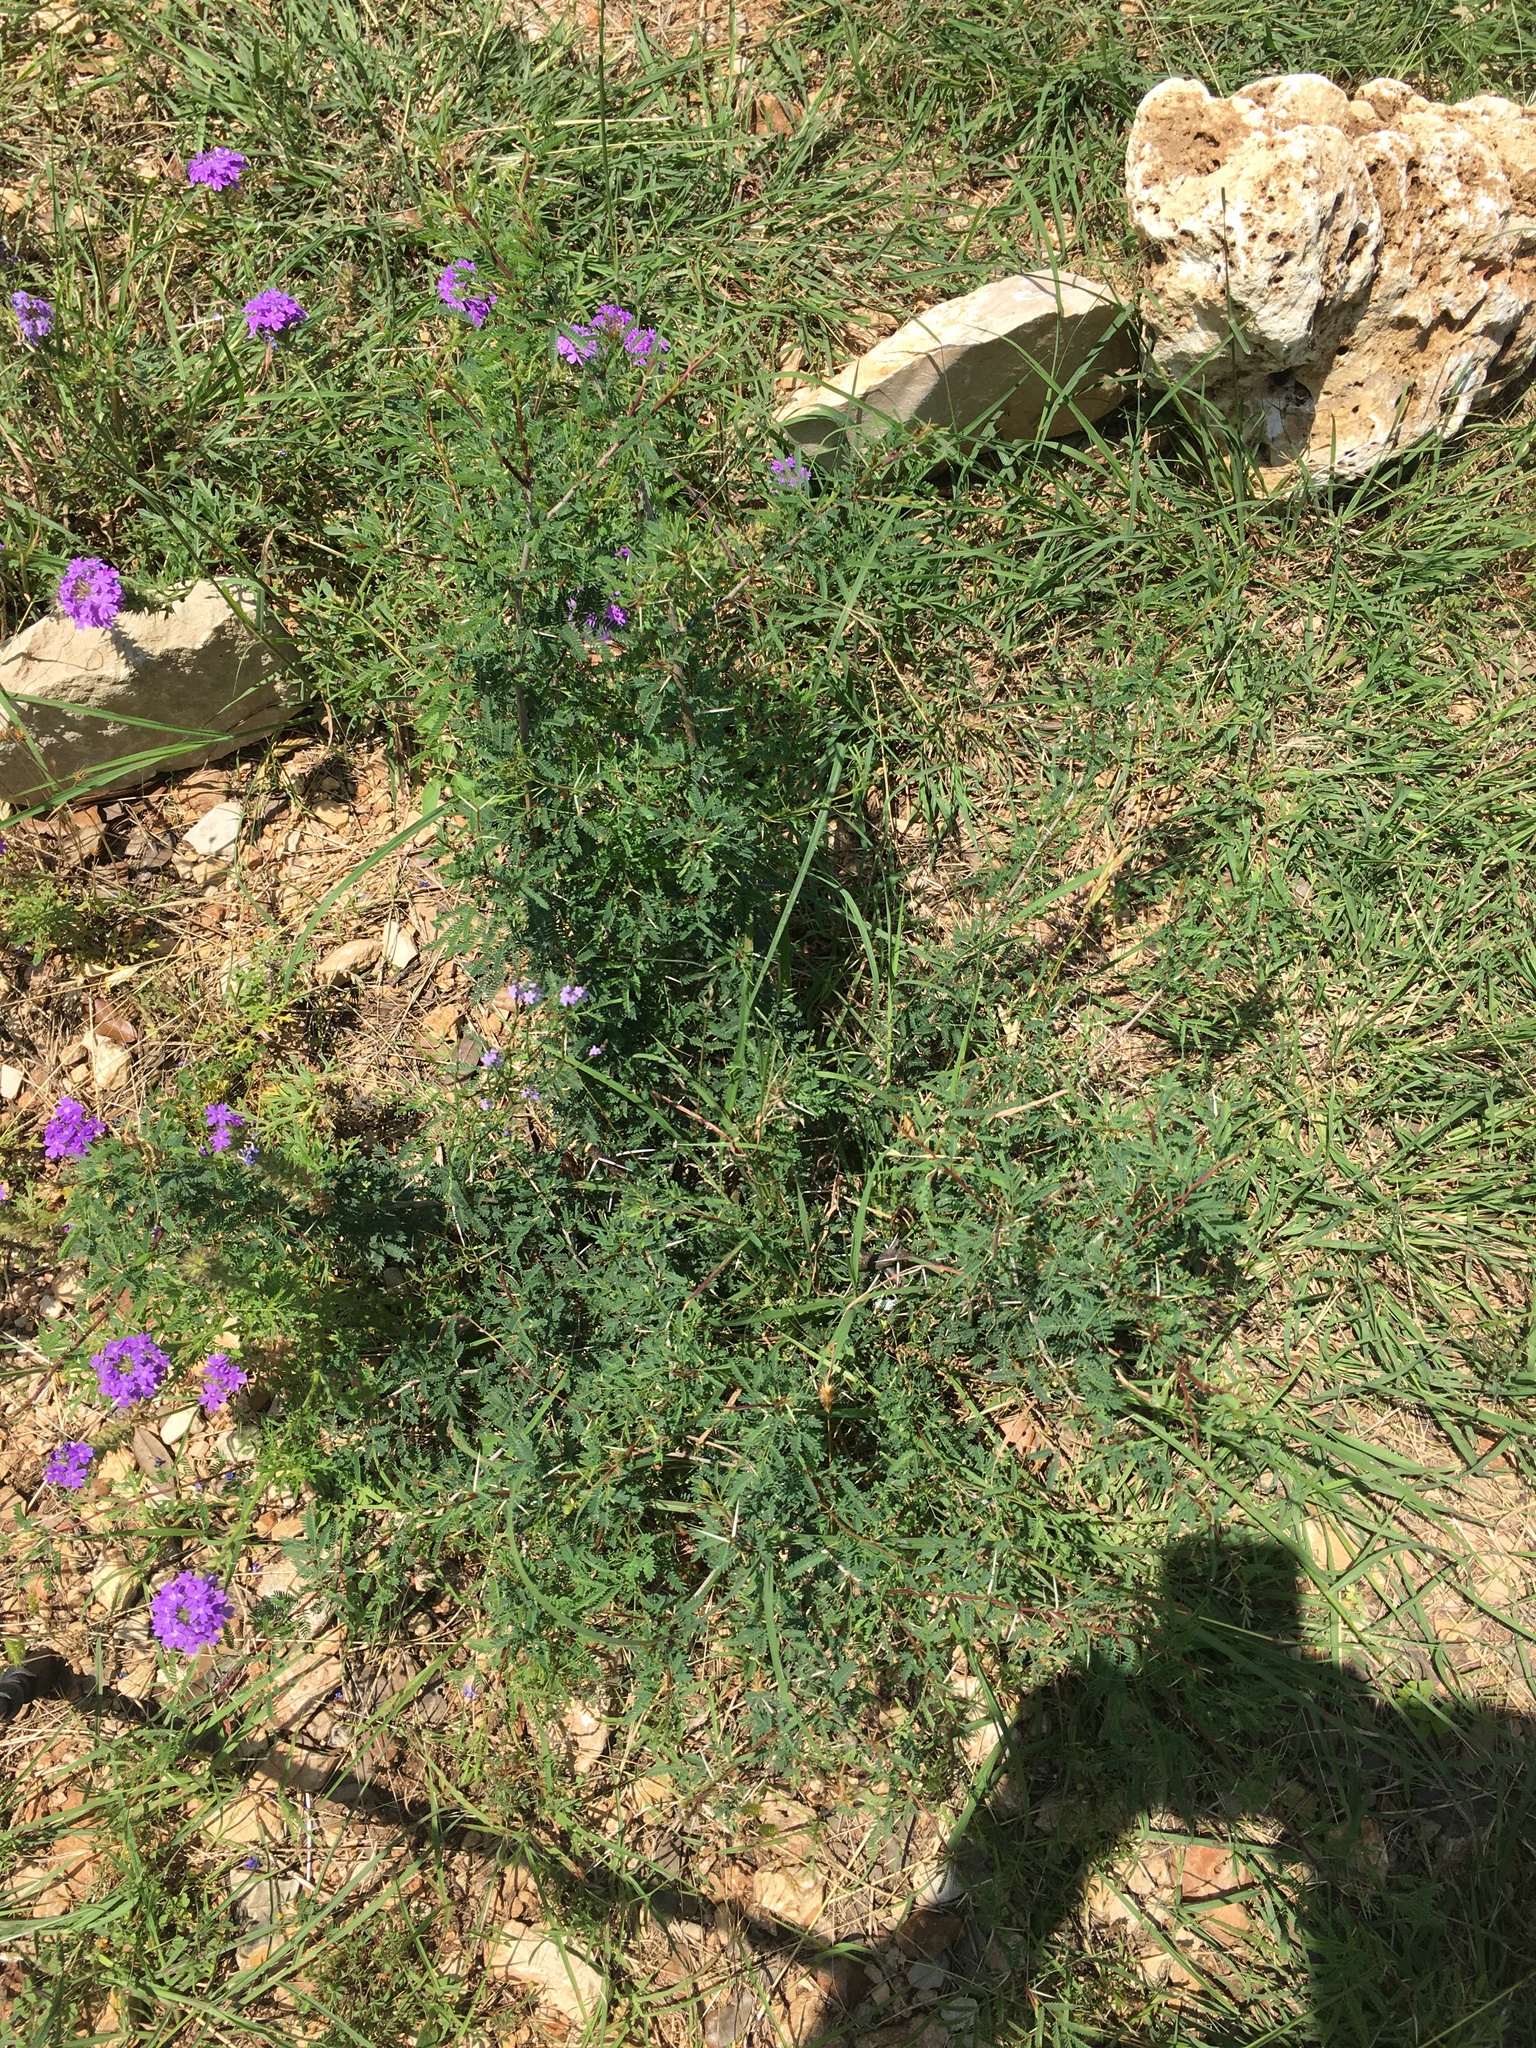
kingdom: Plantae
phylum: Tracheophyta
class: Magnoliopsida
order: Fabales
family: Fabaceae
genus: Vachellia
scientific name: Vachellia farnesiana
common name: Sweet acacia
